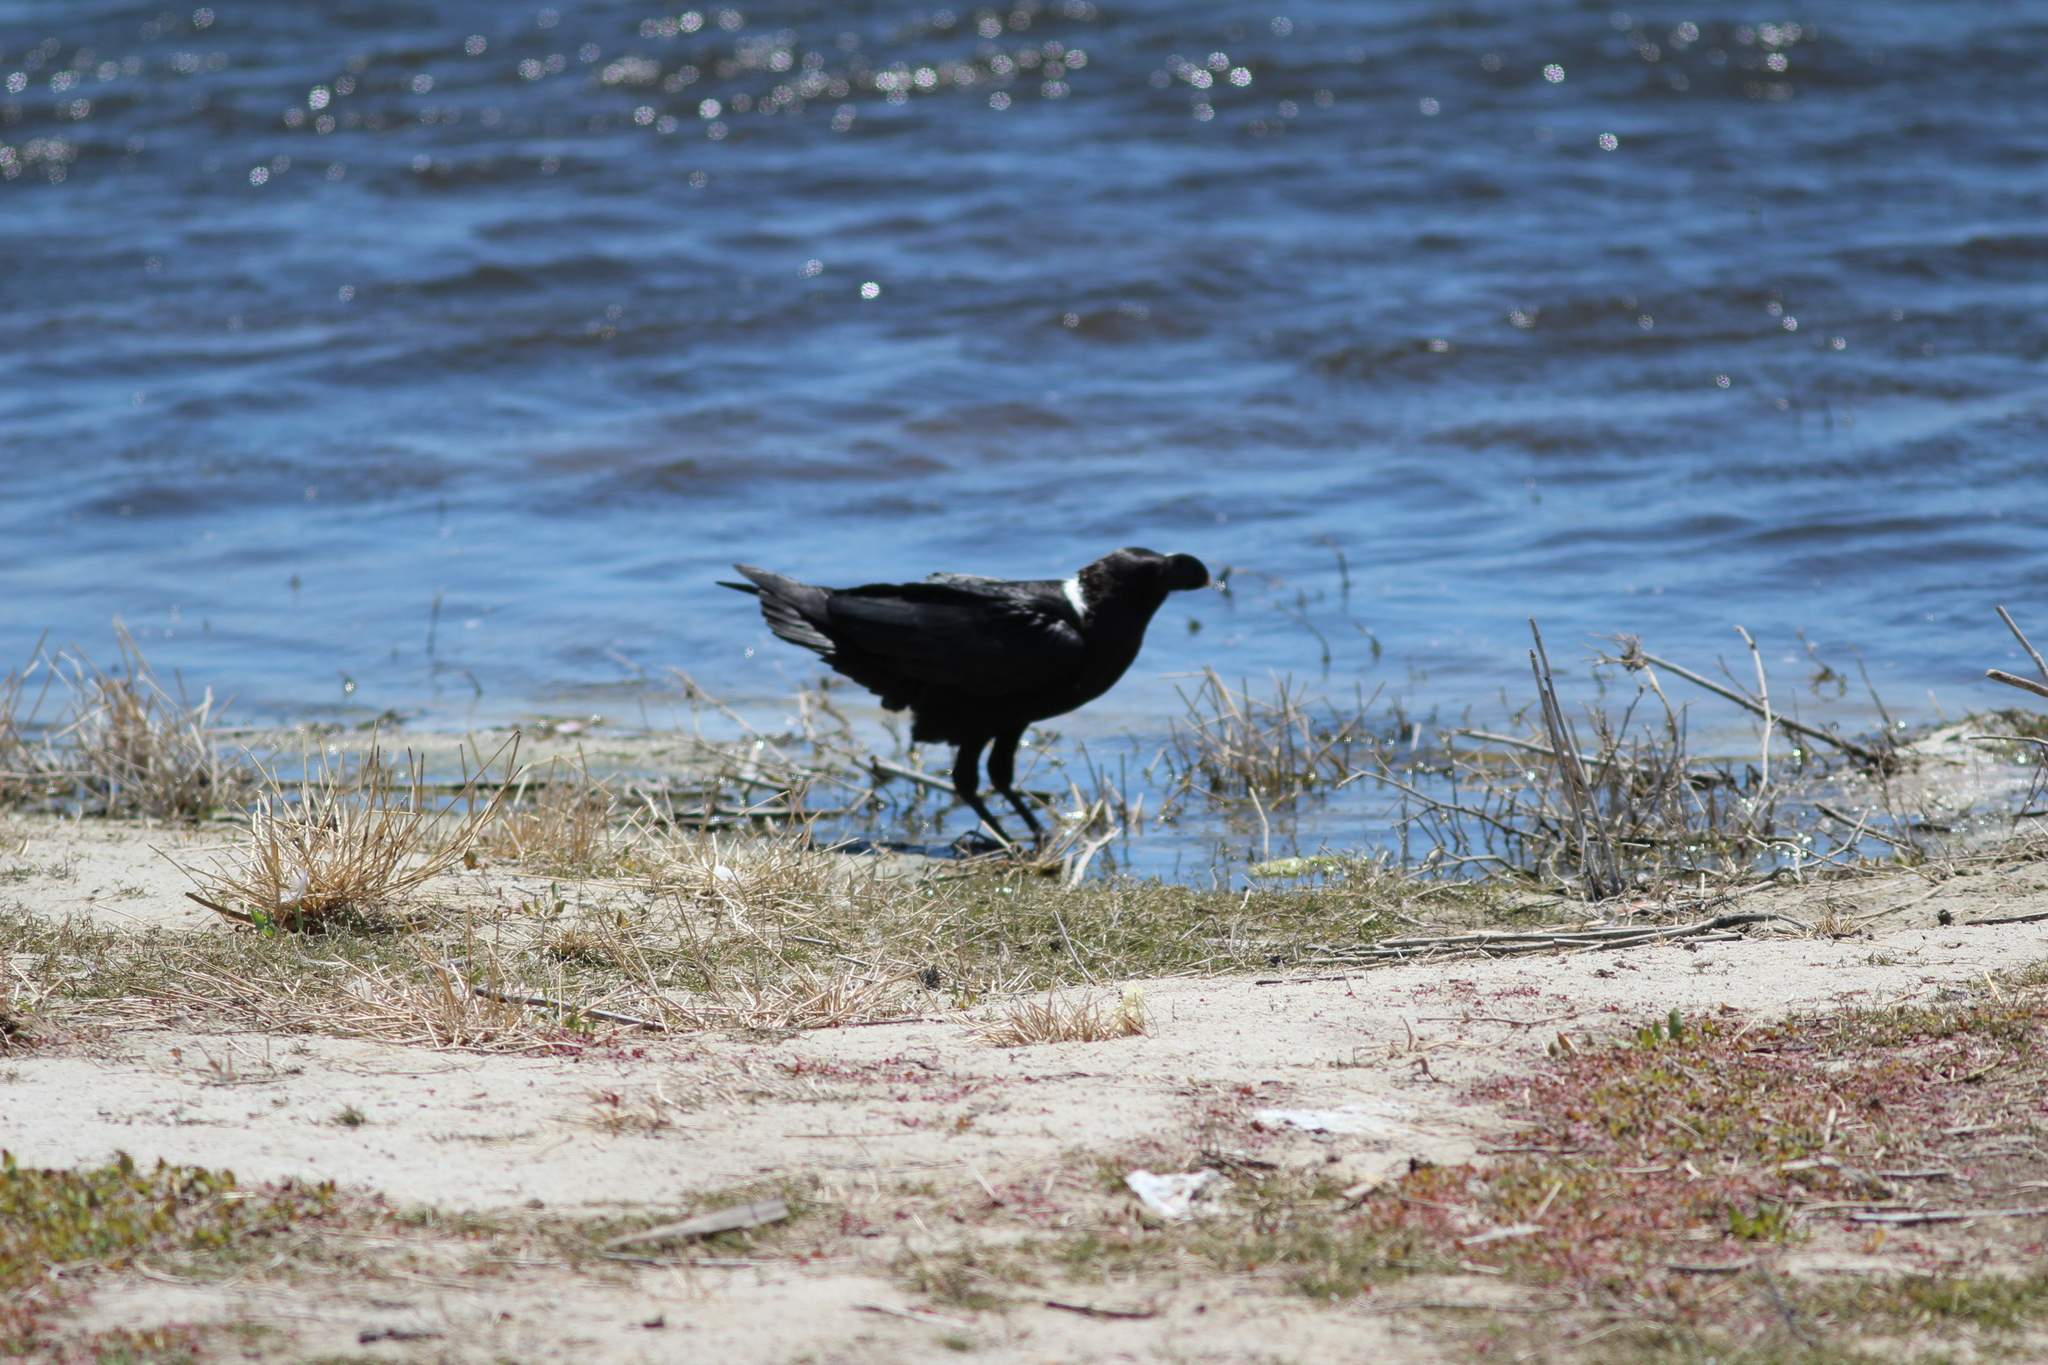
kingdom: Animalia
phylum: Chordata
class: Aves
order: Passeriformes
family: Corvidae
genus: Corvus
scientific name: Corvus albicollis
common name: White-necked raven
